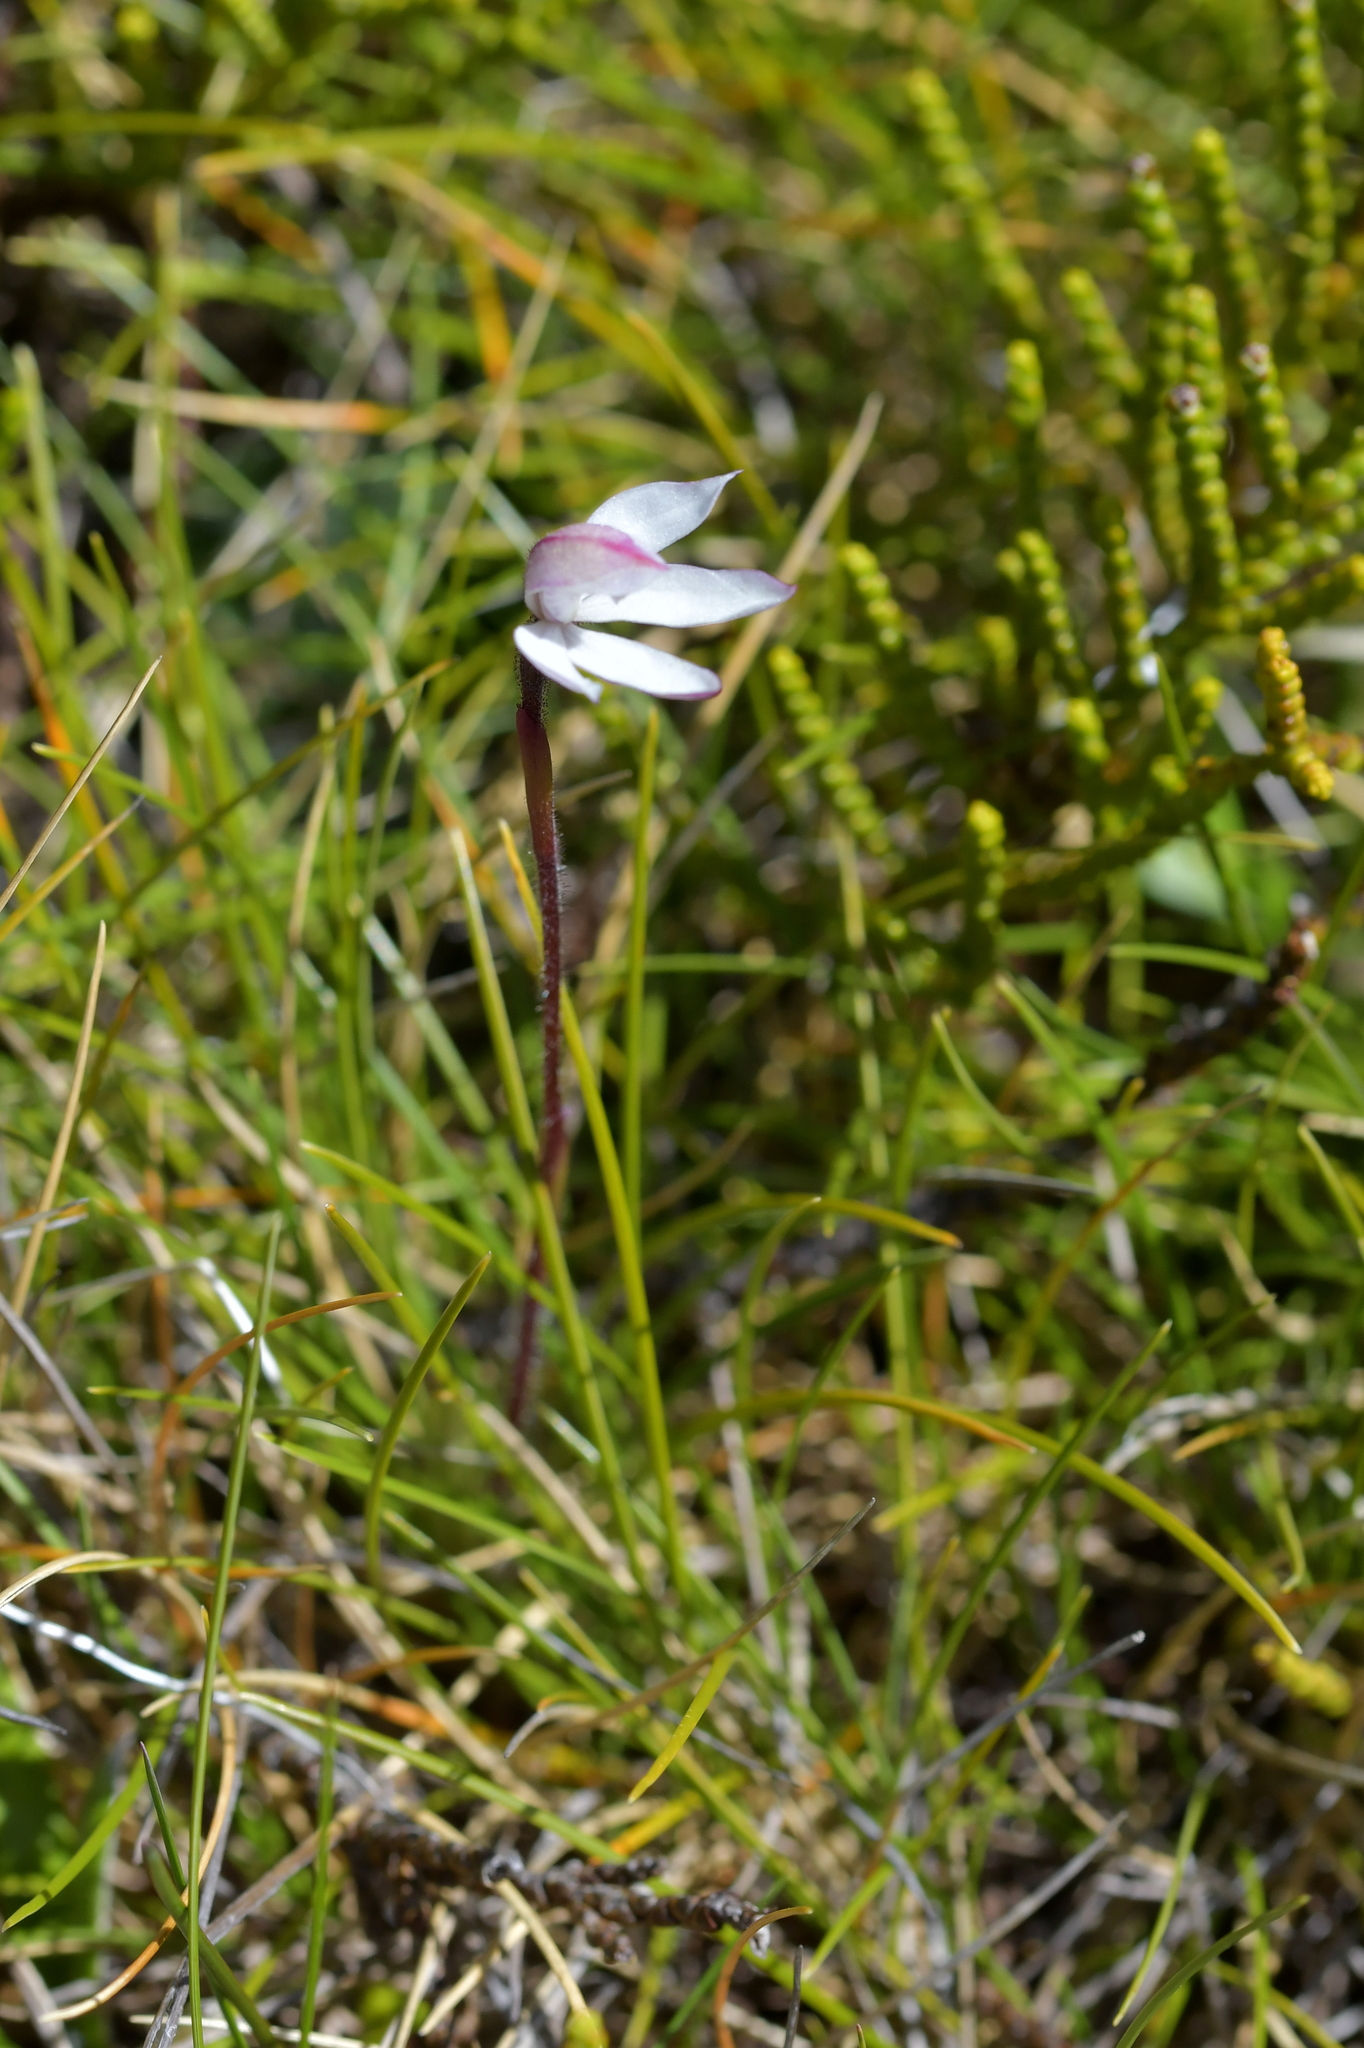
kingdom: Plantae
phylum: Tracheophyta
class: Liliopsida
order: Asparagales
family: Orchidaceae
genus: Caladenia
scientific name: Caladenia lyallii
